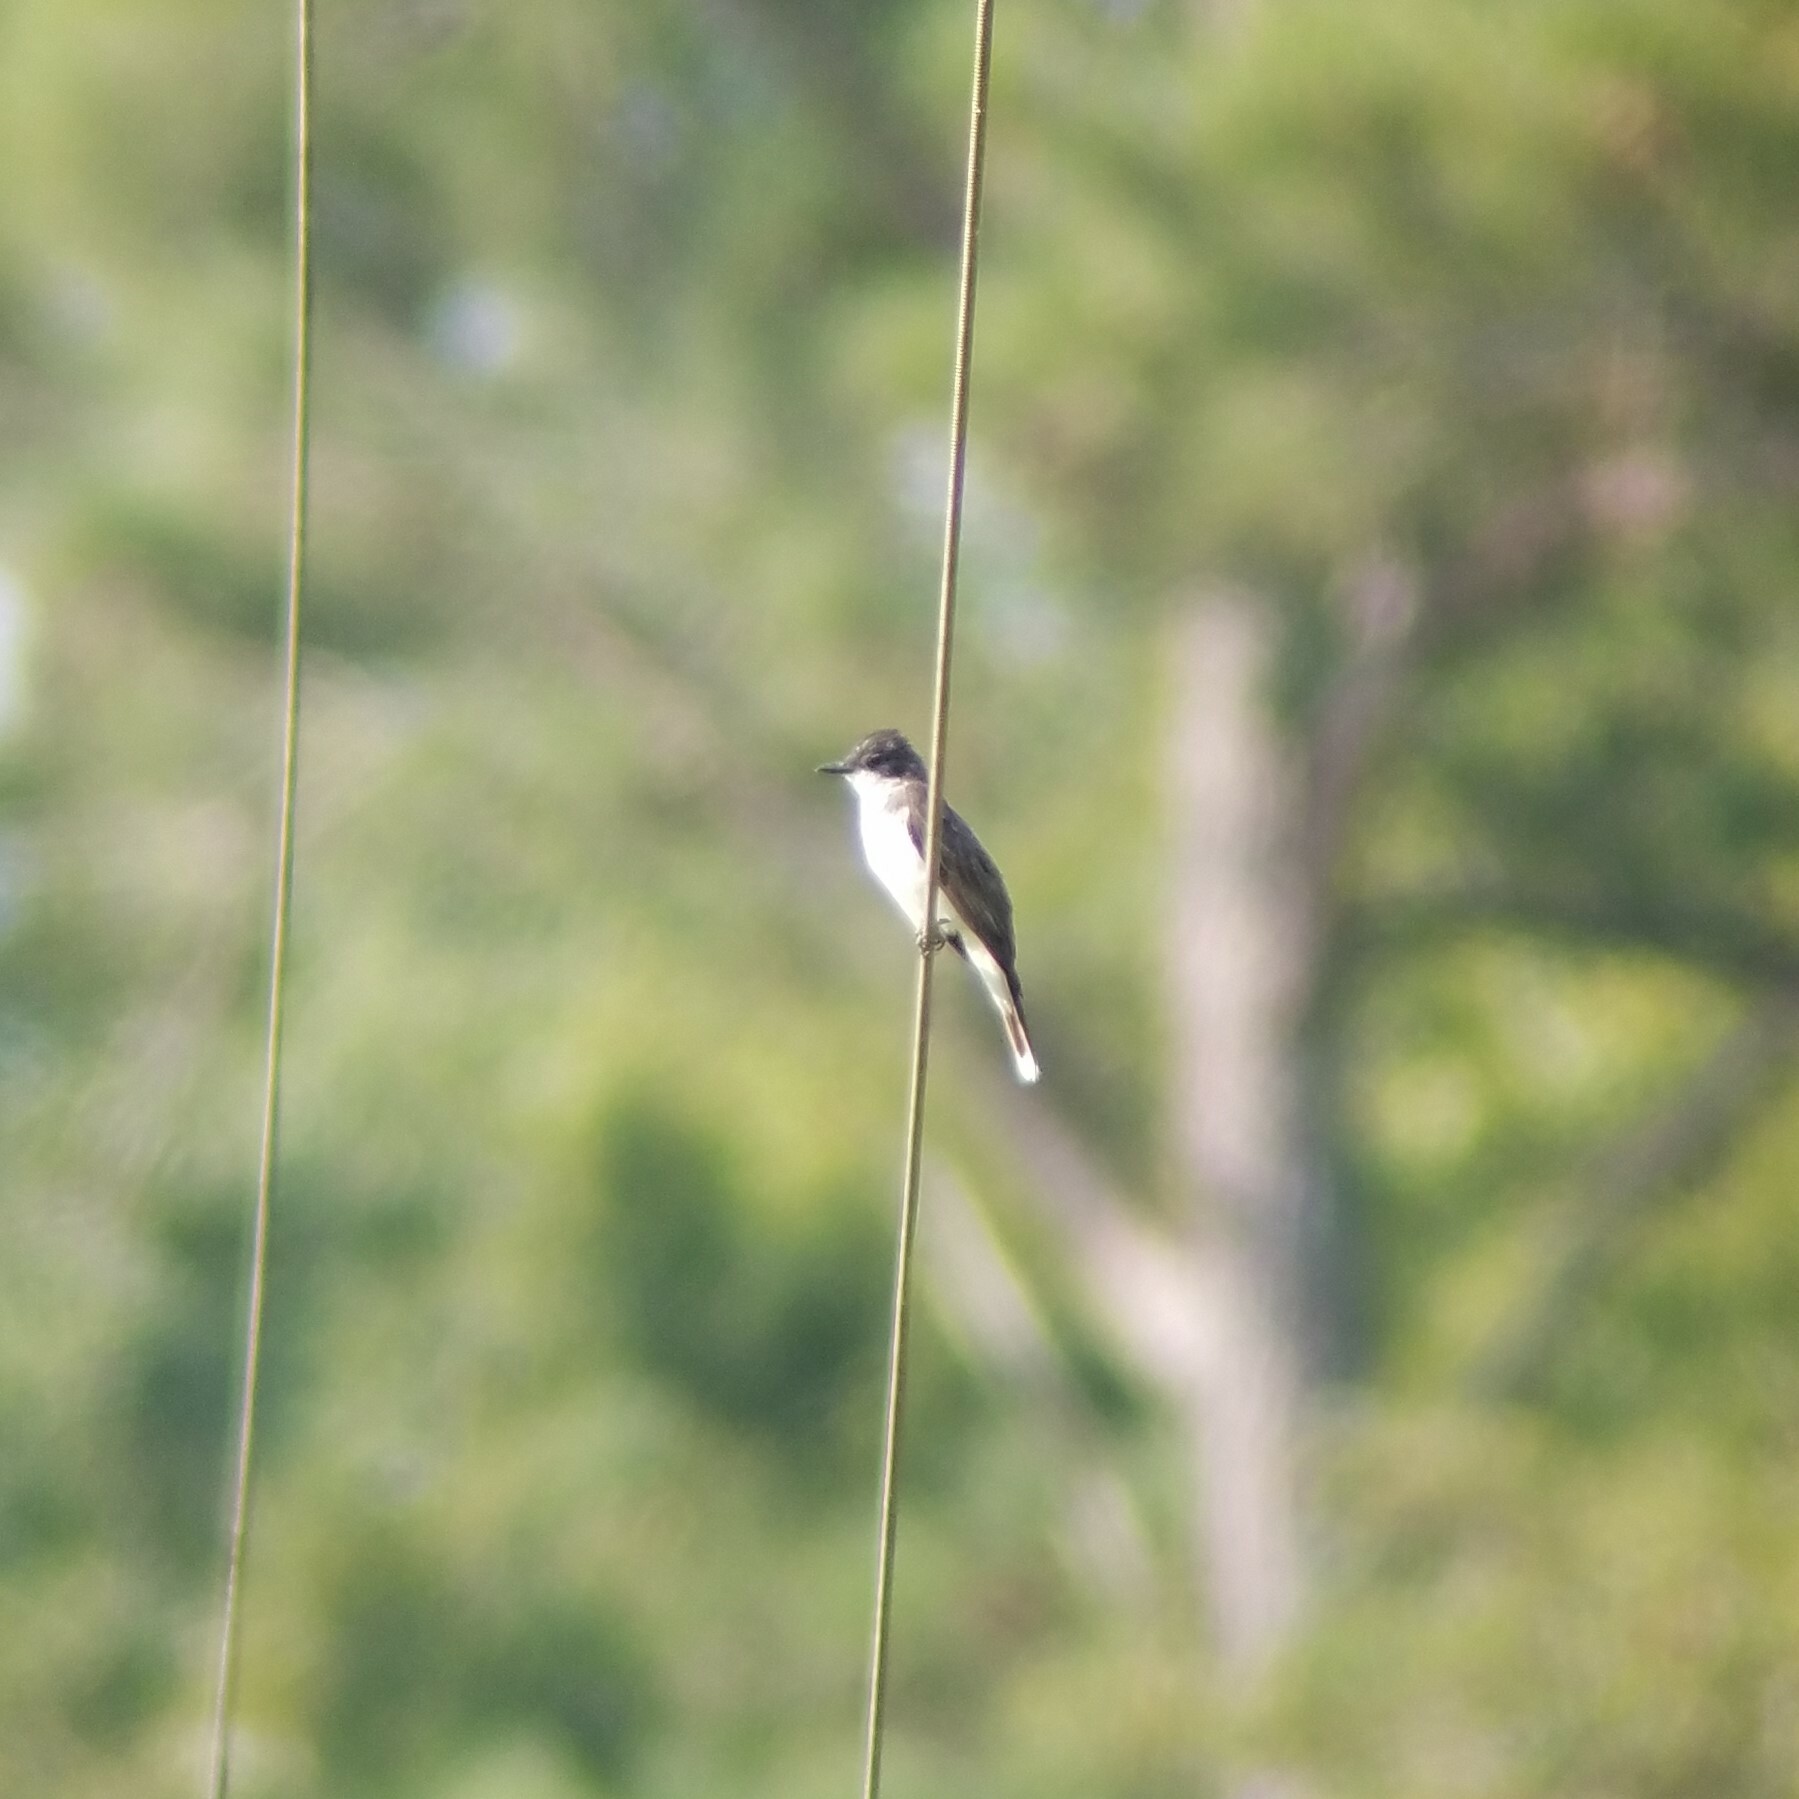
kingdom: Animalia
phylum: Chordata
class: Aves
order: Passeriformes
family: Tyrannidae
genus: Tyrannus
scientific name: Tyrannus tyrannus
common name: Eastern kingbird
